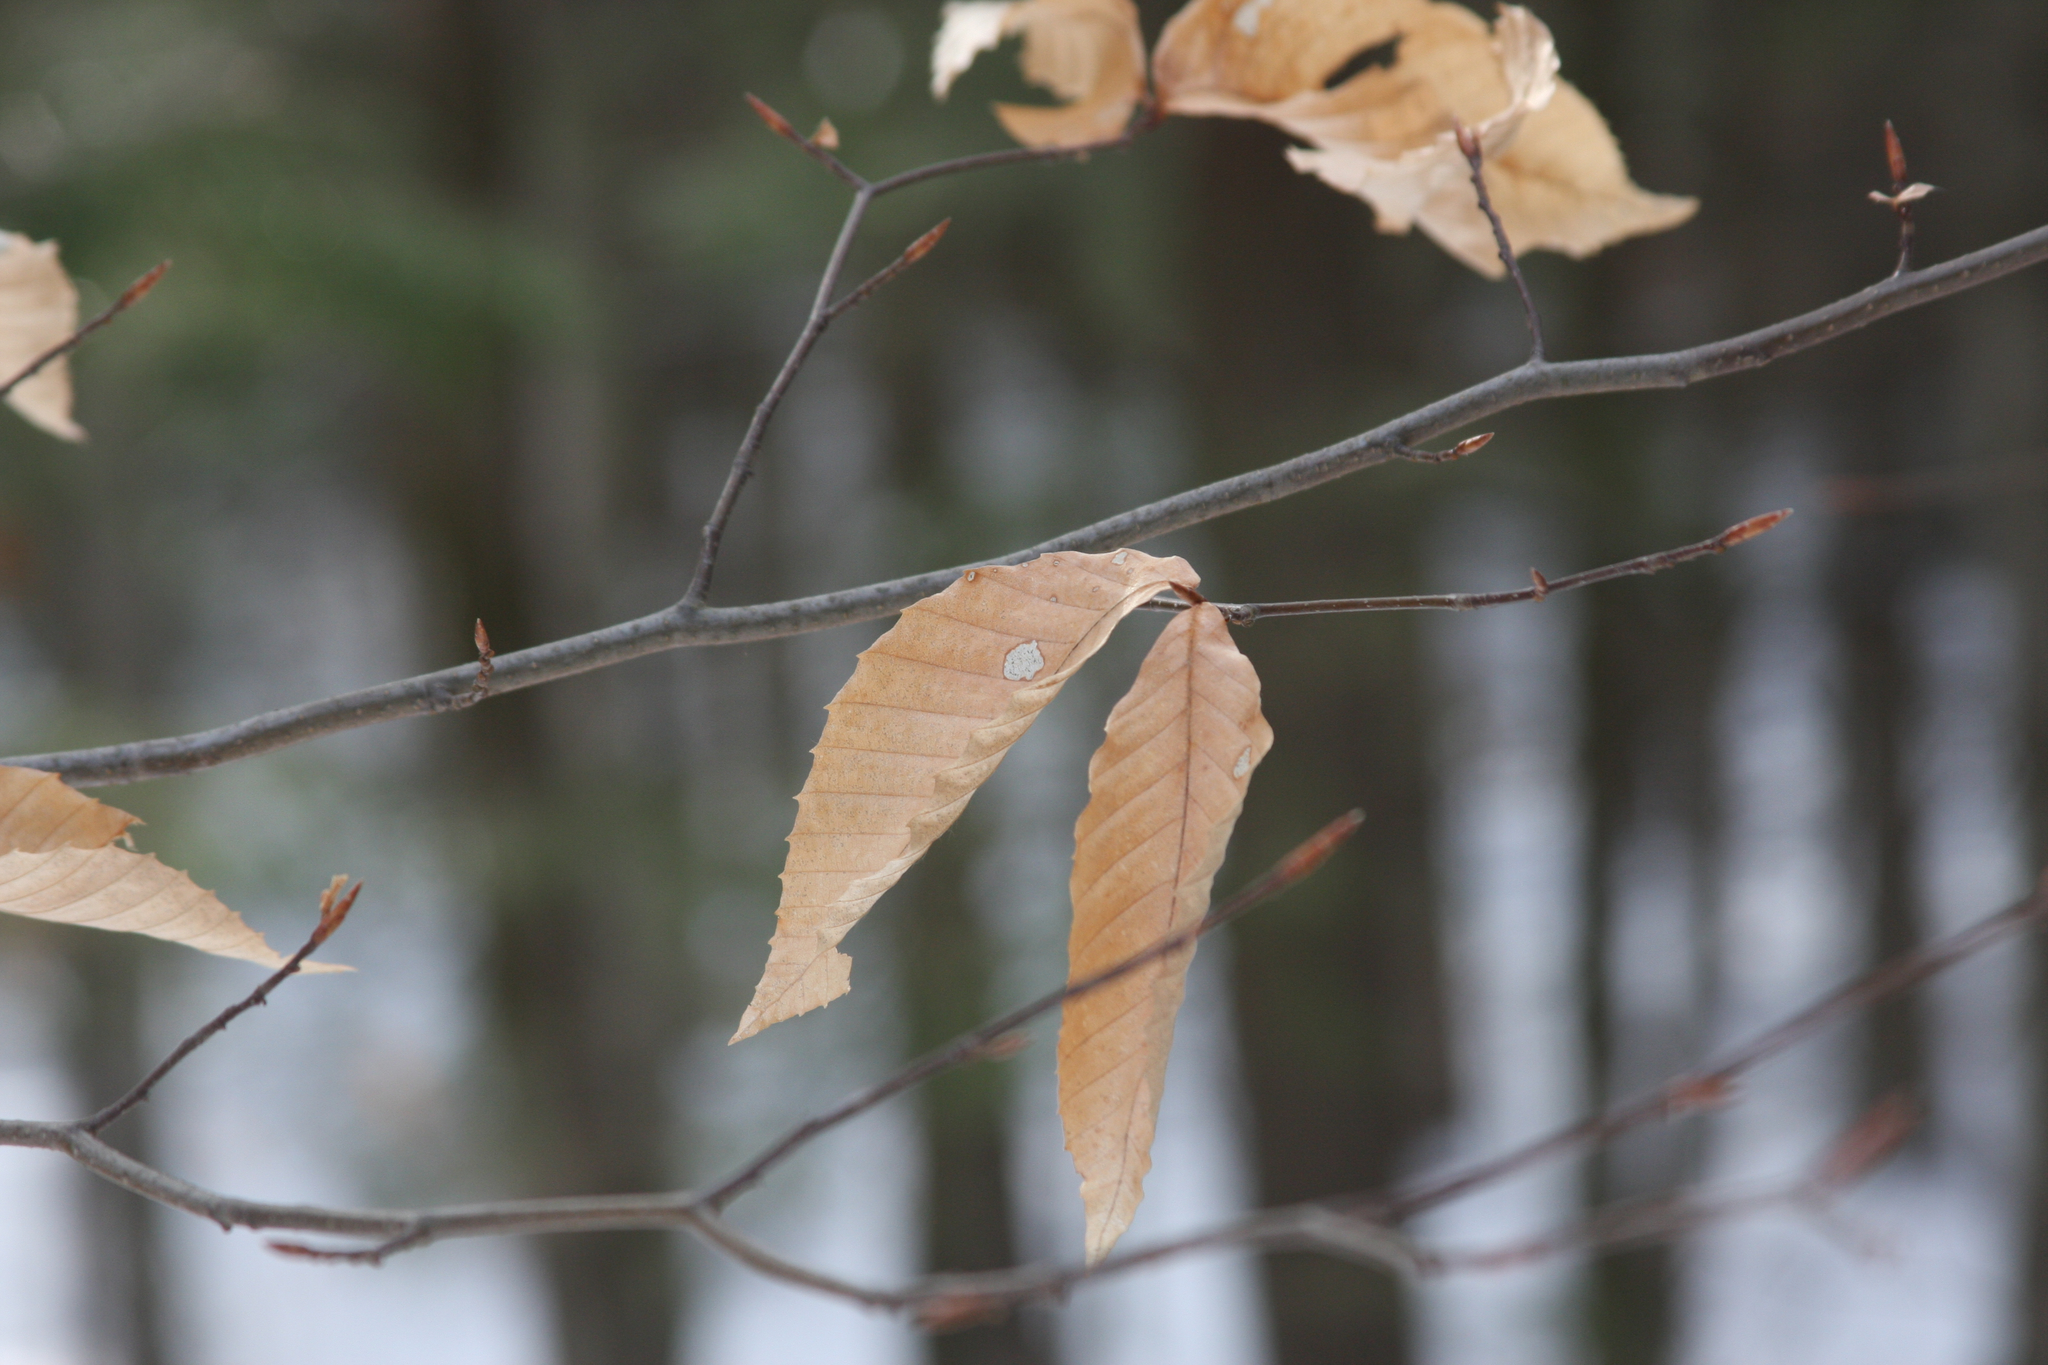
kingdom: Plantae
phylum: Tracheophyta
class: Magnoliopsida
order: Fagales
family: Fagaceae
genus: Fagus
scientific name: Fagus grandifolia
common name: American beech
